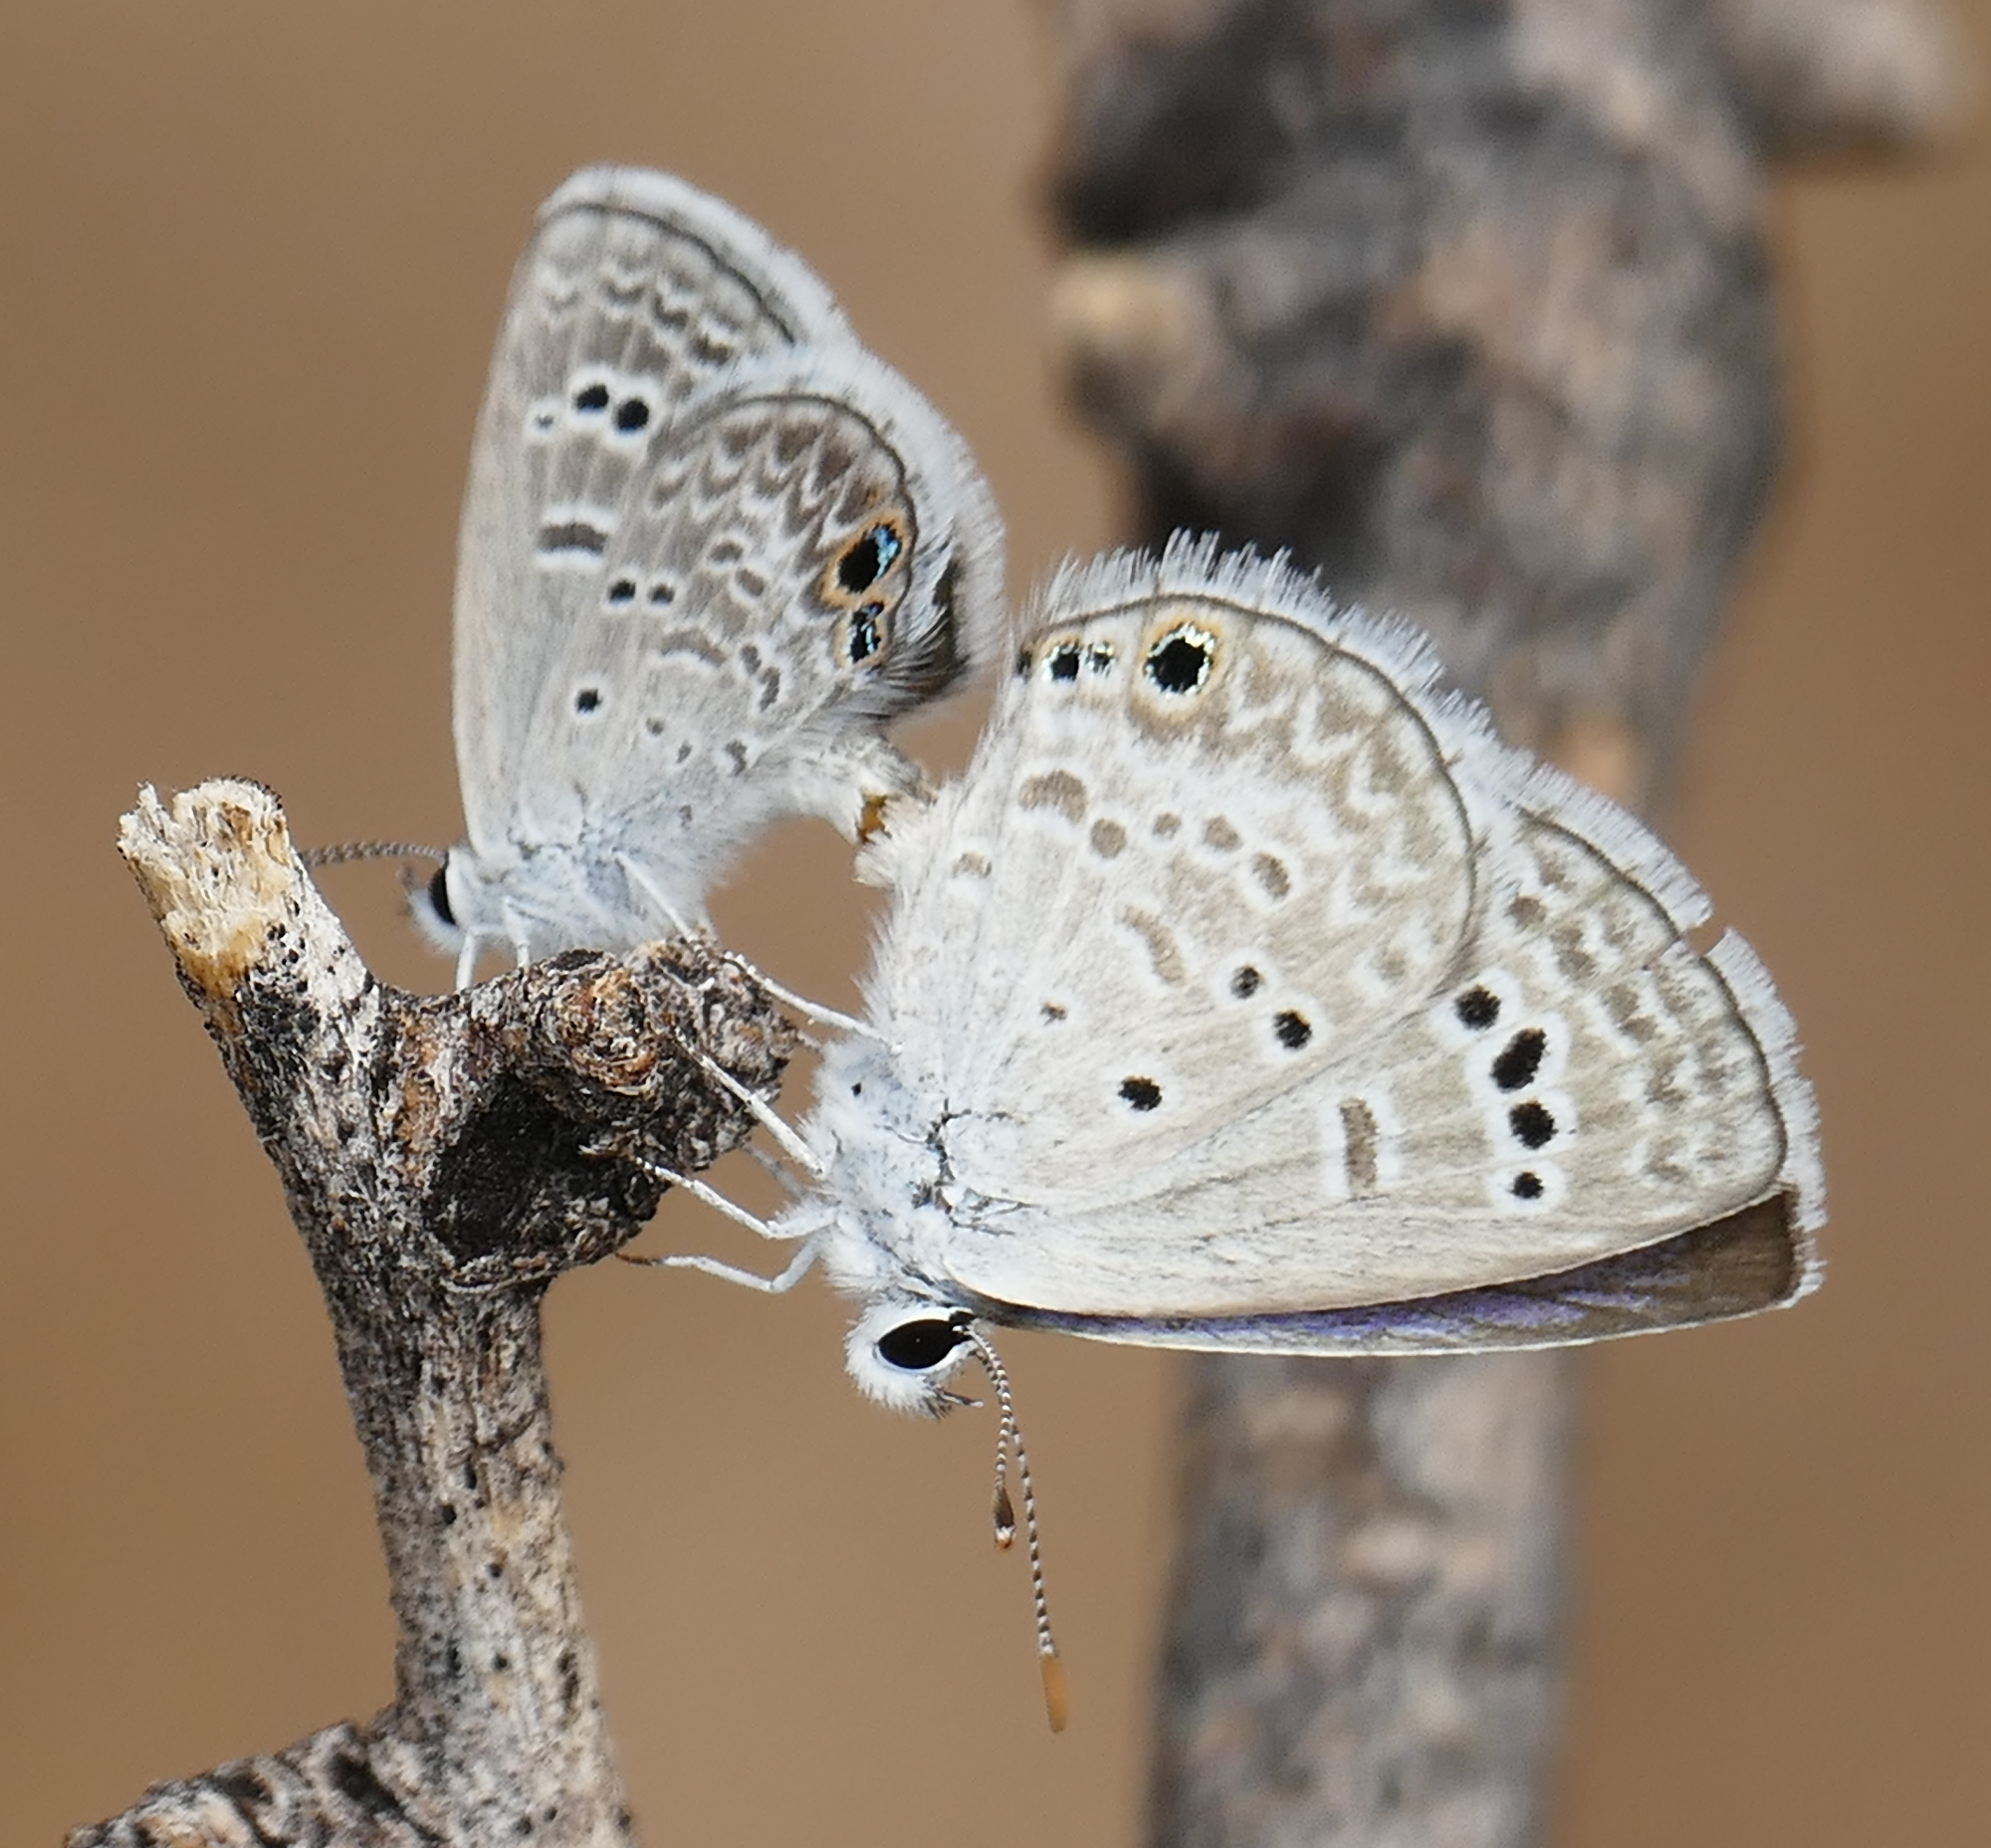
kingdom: Animalia
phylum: Arthropoda
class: Insecta
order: Lepidoptera
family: Lycaenidae
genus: Echinargus
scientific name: Echinargus isola
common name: Reakirt's blue
